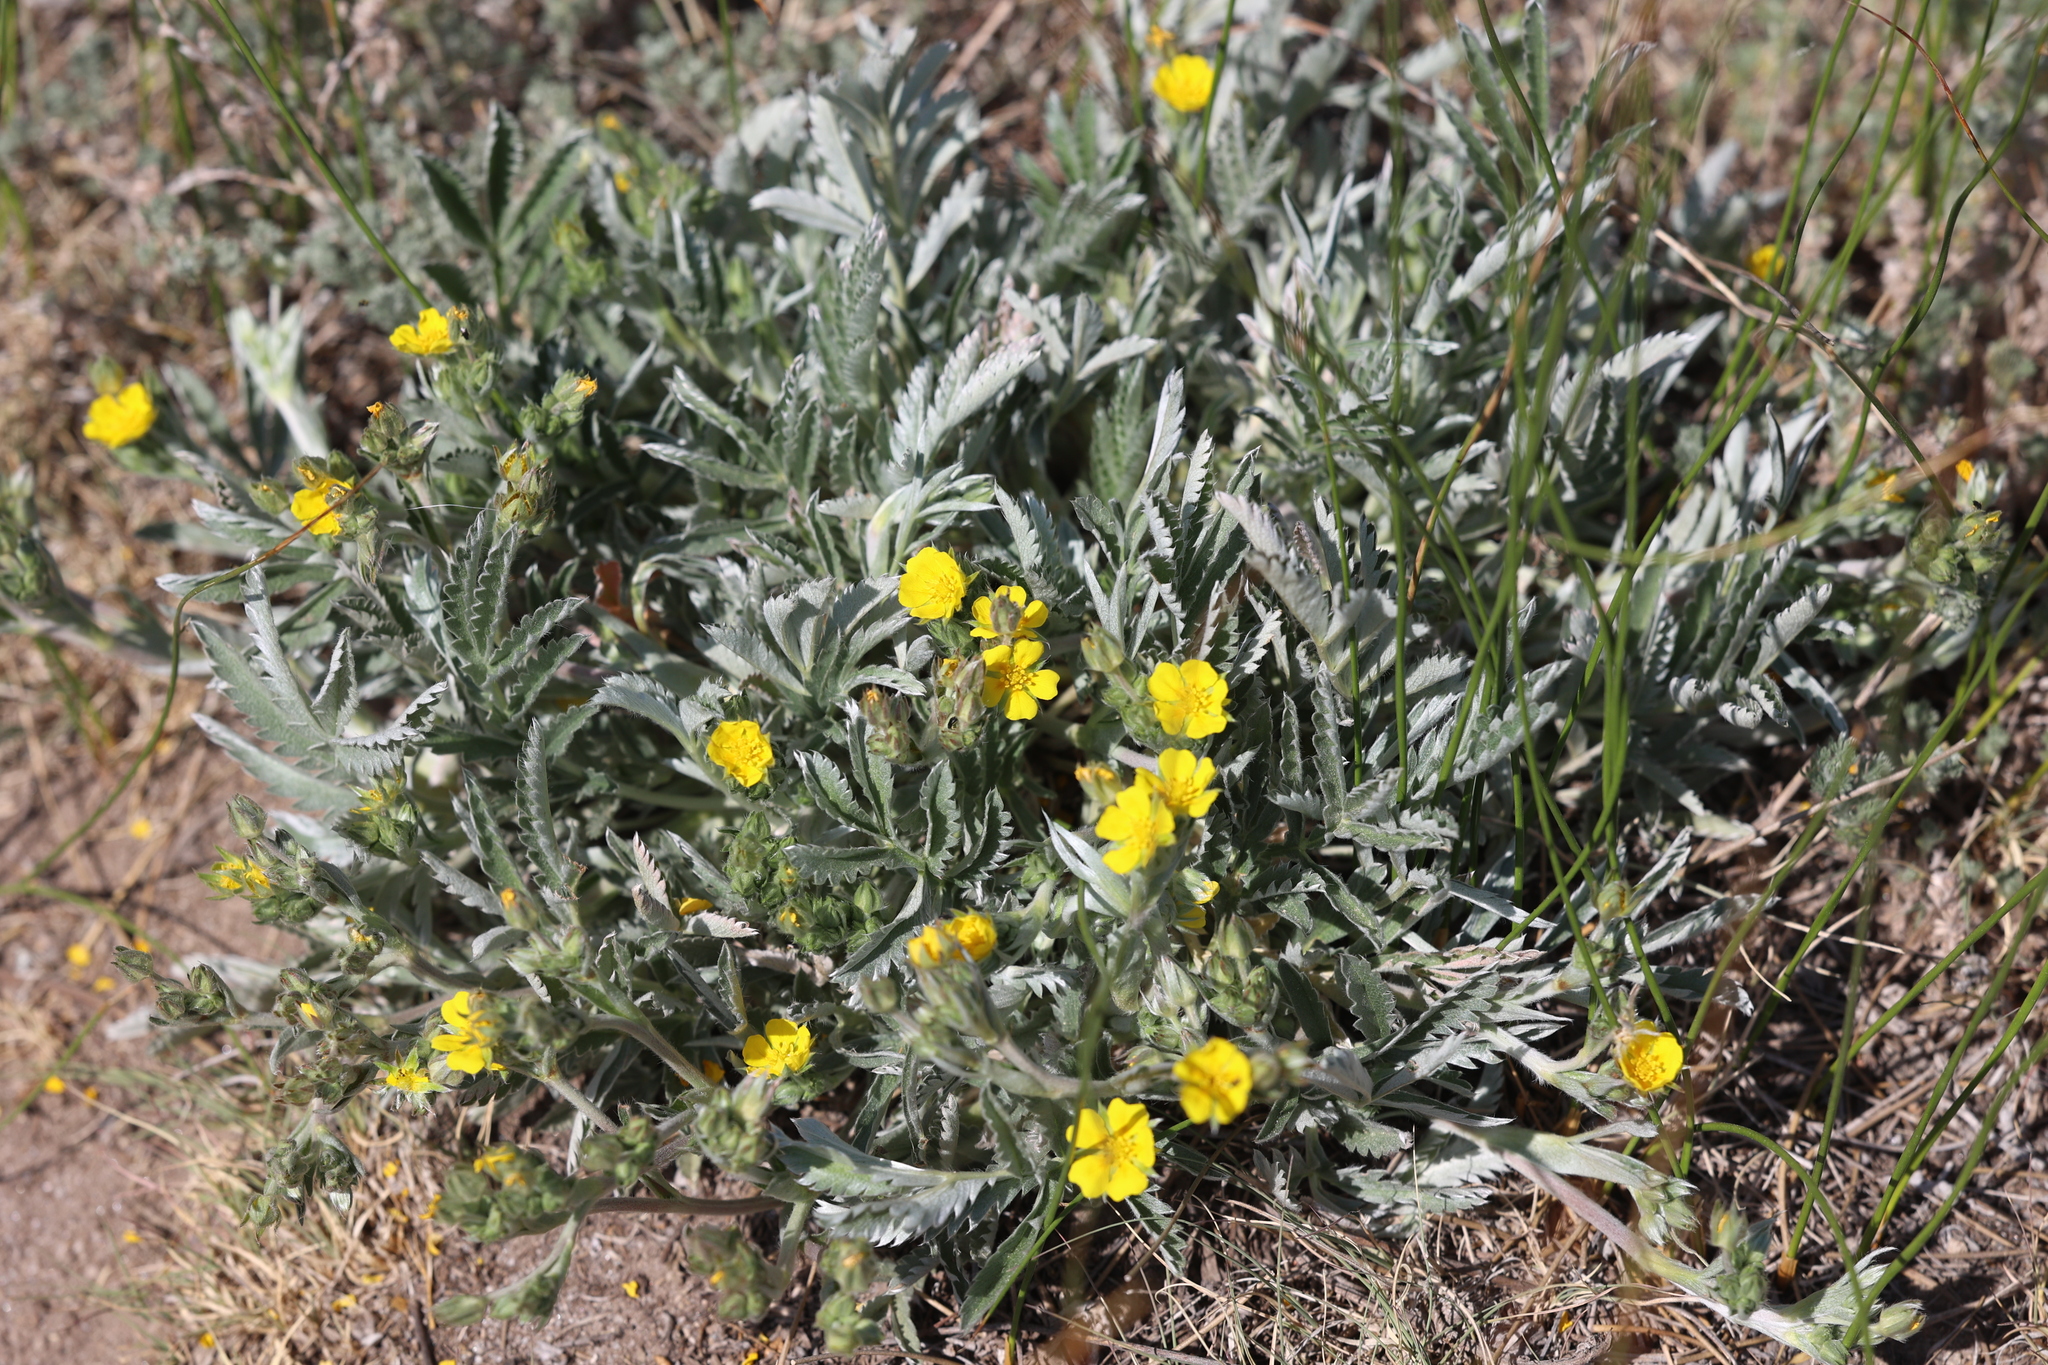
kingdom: Plantae
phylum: Tracheophyta
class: Magnoliopsida
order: Rosales
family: Rosaceae
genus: Potentilla
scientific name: Potentilla hippiana
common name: Woolly cinquefoil
